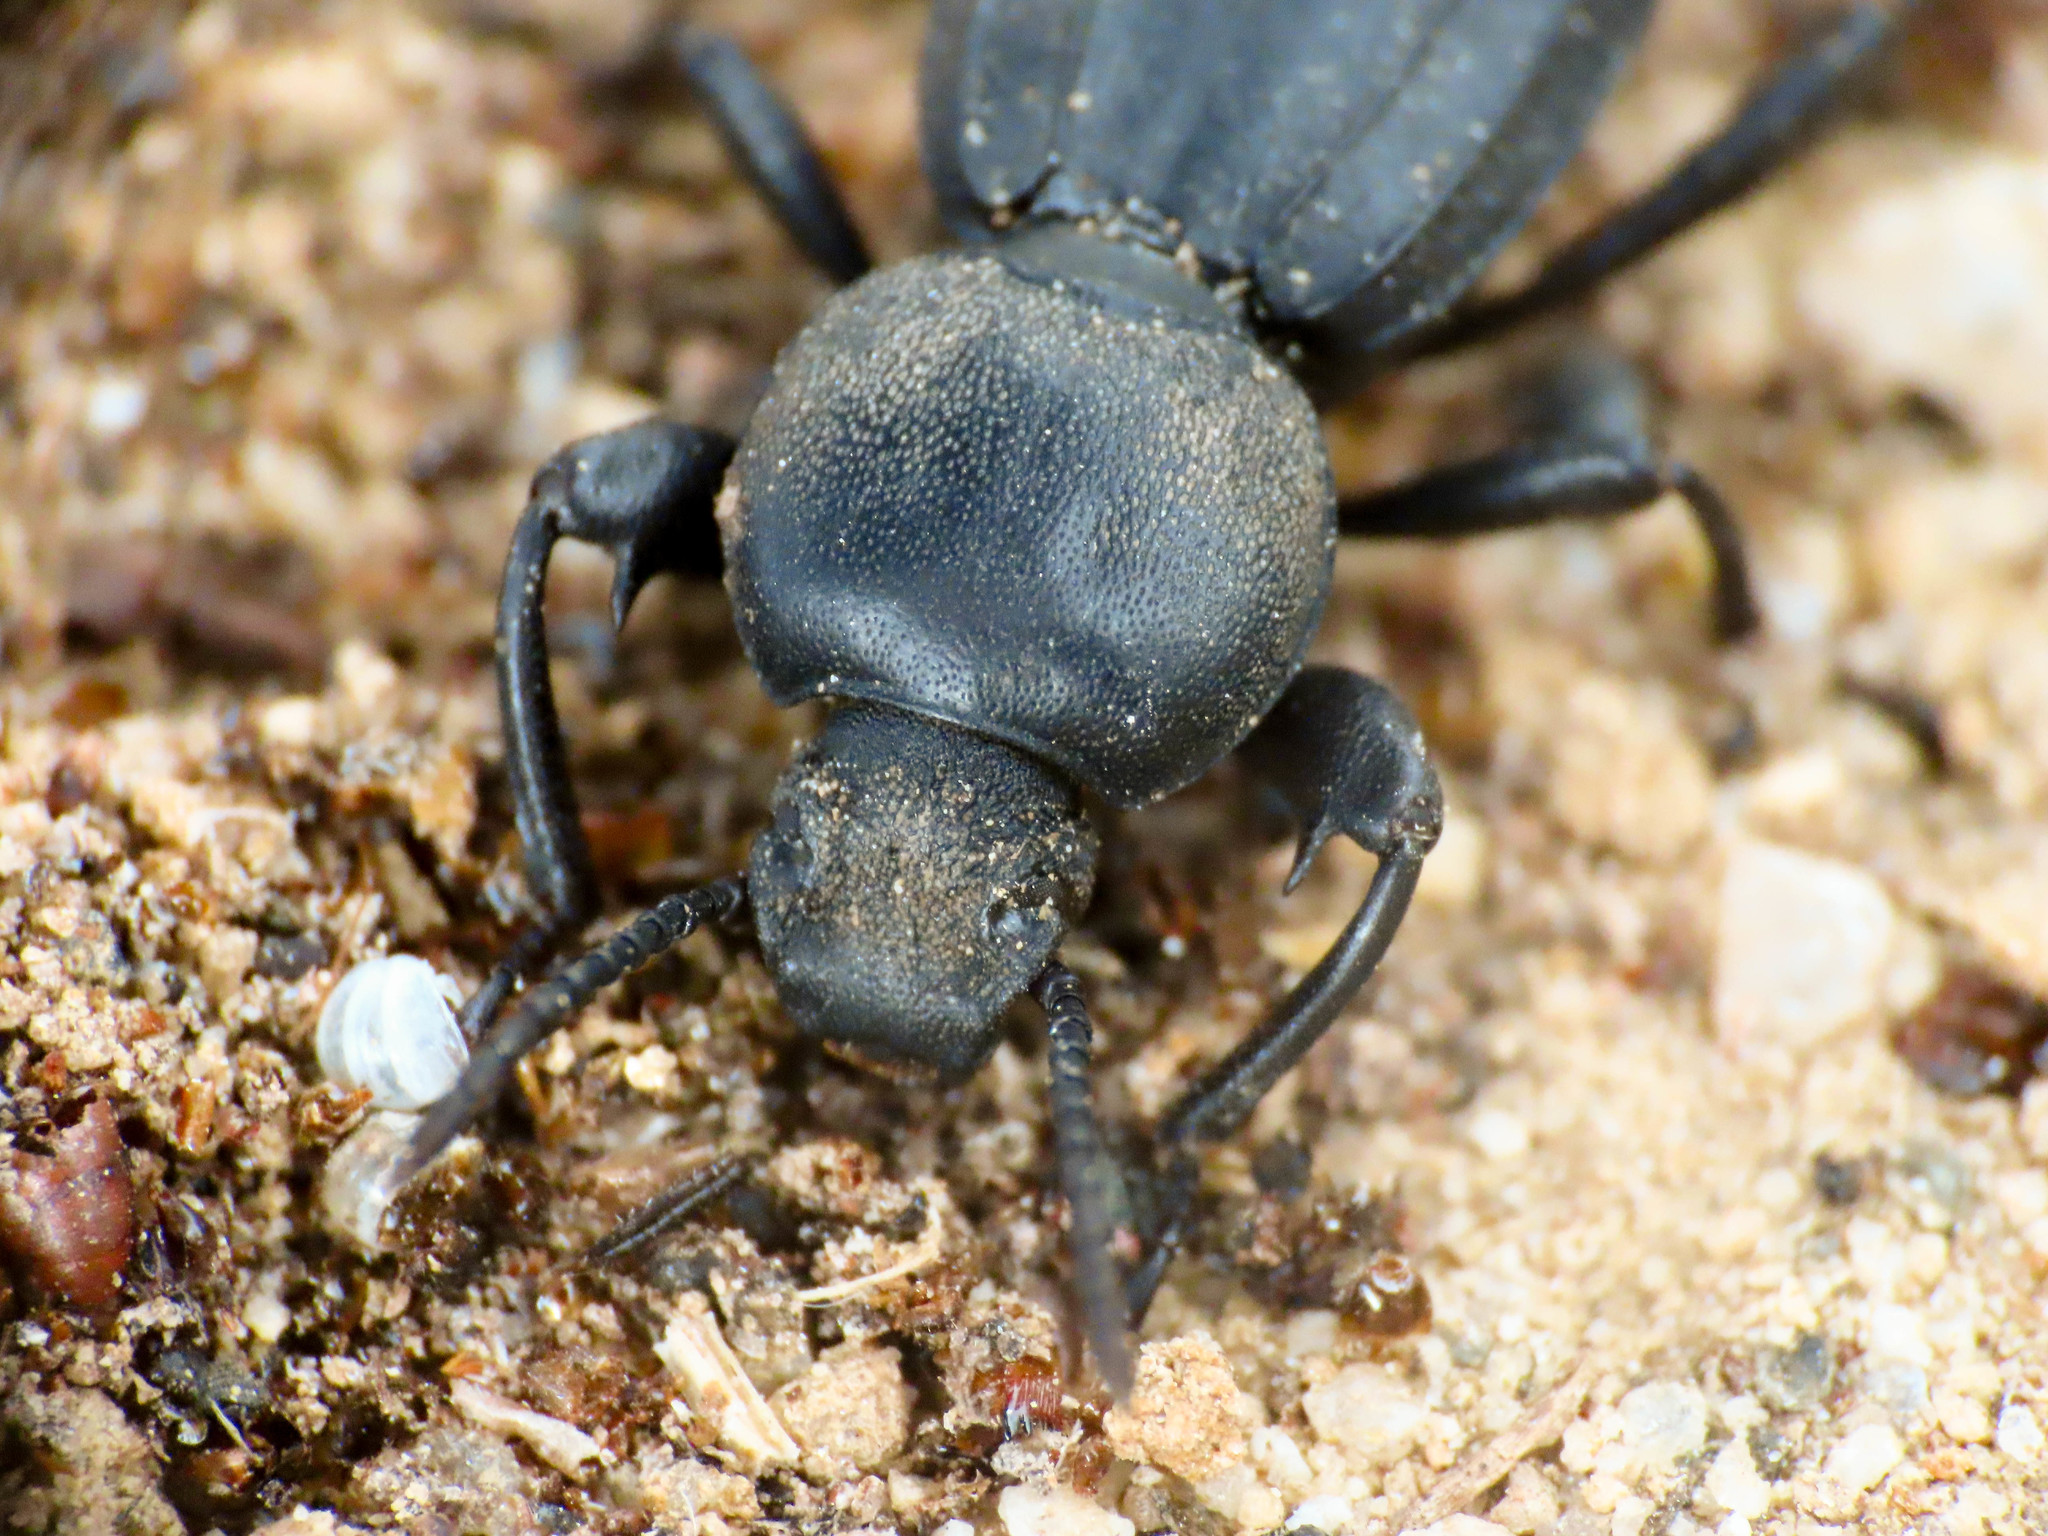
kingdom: Animalia
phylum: Arthropoda
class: Insecta
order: Coleoptera
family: Tenebrionidae
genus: Scaurus
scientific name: Scaurus striatus
